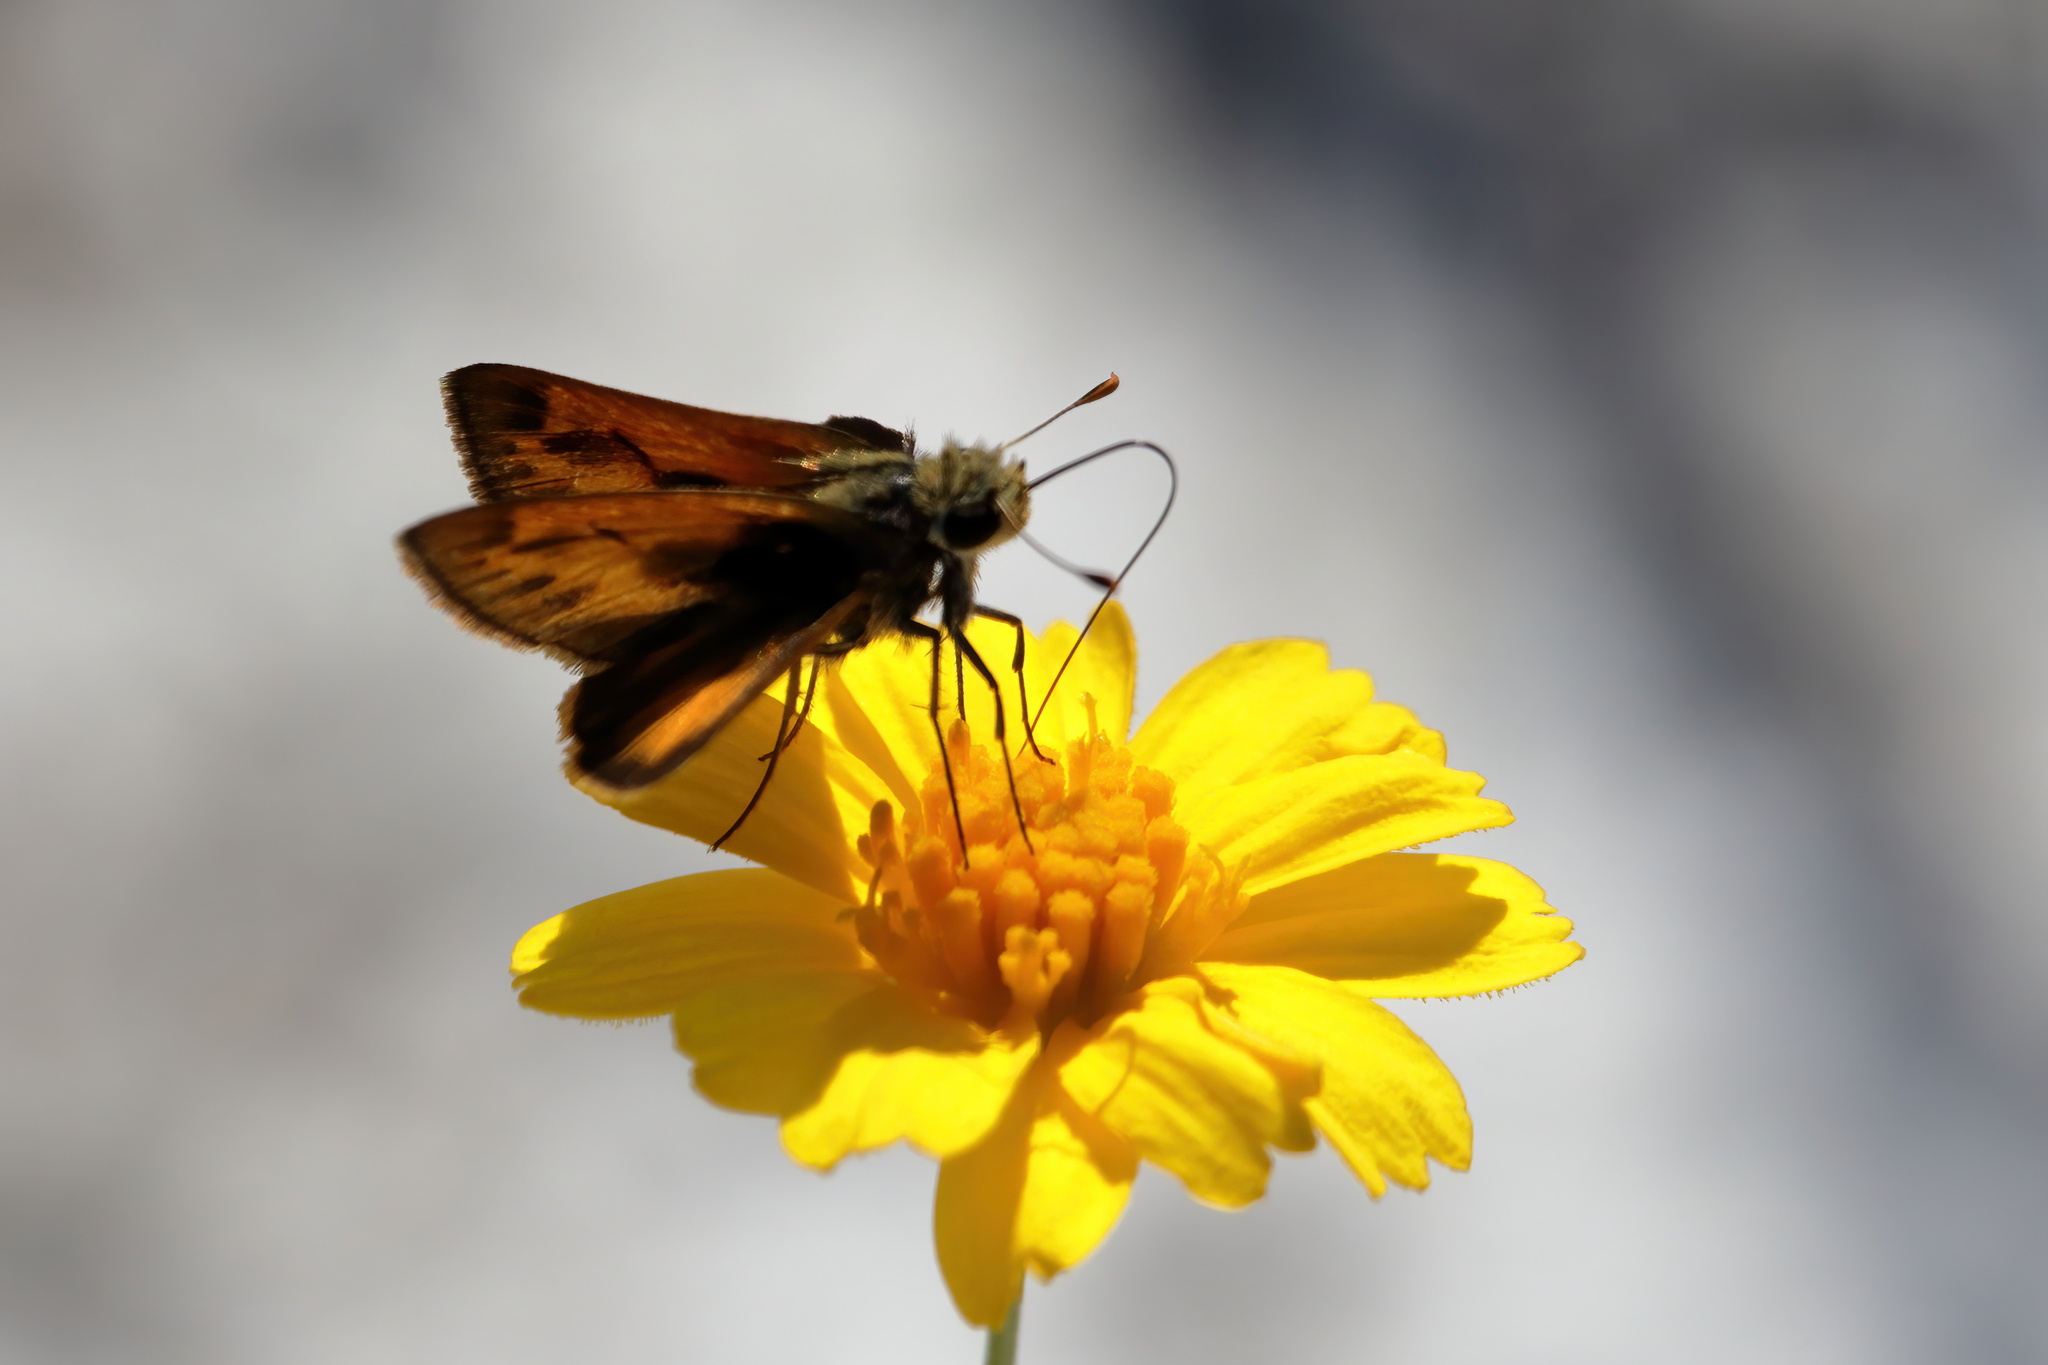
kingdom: Animalia
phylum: Arthropoda
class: Insecta
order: Lepidoptera
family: Hesperiidae
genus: Hylephila
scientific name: Hylephila phyleus
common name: Fiery skipper
